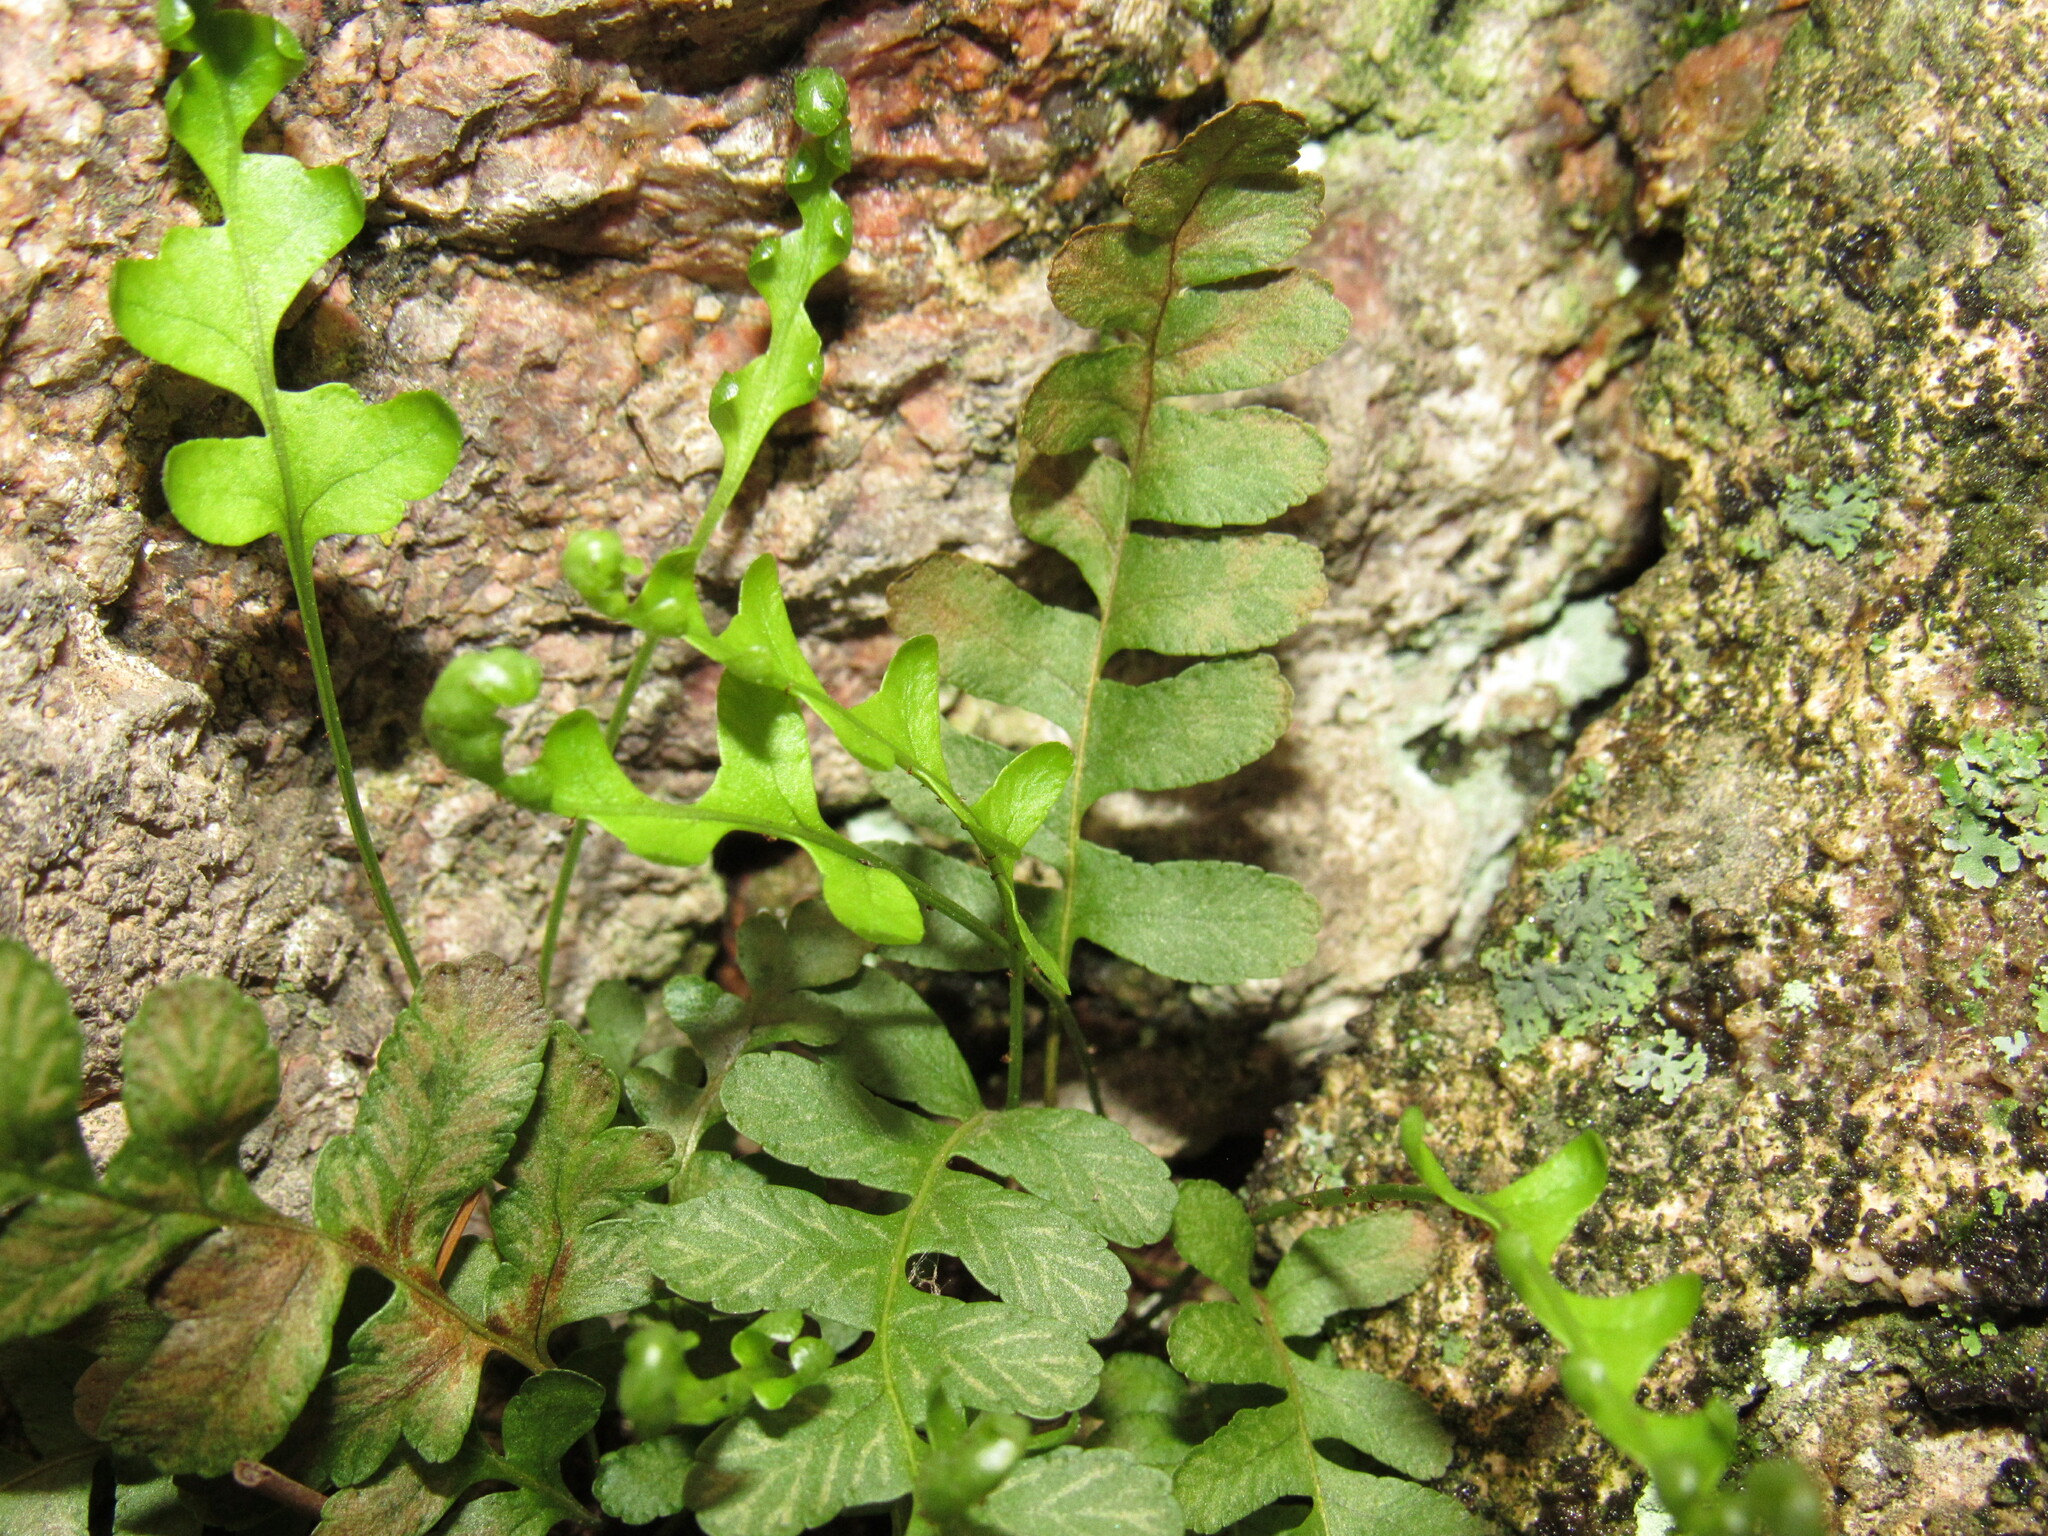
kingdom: Plantae
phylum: Tracheophyta
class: Polypodiopsida
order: Polypodiales
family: Polypodiaceae
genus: Polypodium
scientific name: Polypodium saximontanum
